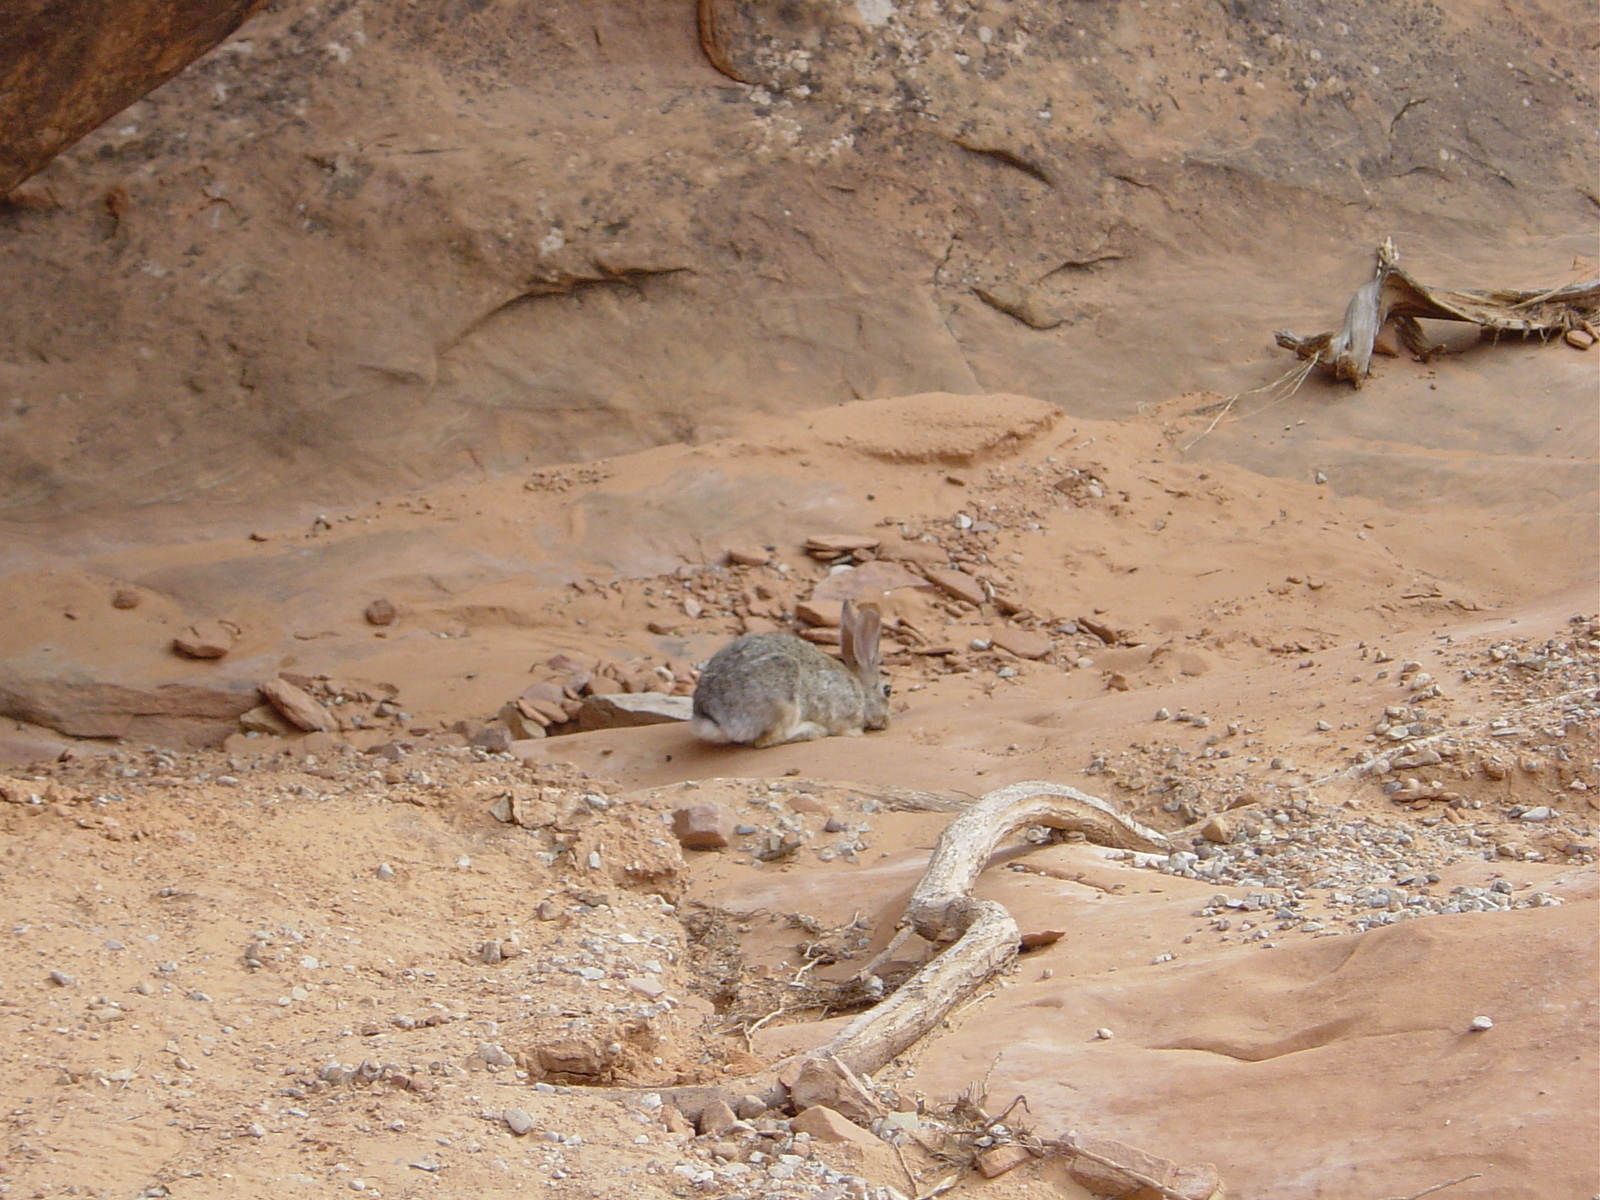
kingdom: Animalia
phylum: Chordata
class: Mammalia
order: Lagomorpha
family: Leporidae
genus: Sylvilagus
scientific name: Sylvilagus audubonii
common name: Desert cottontail
